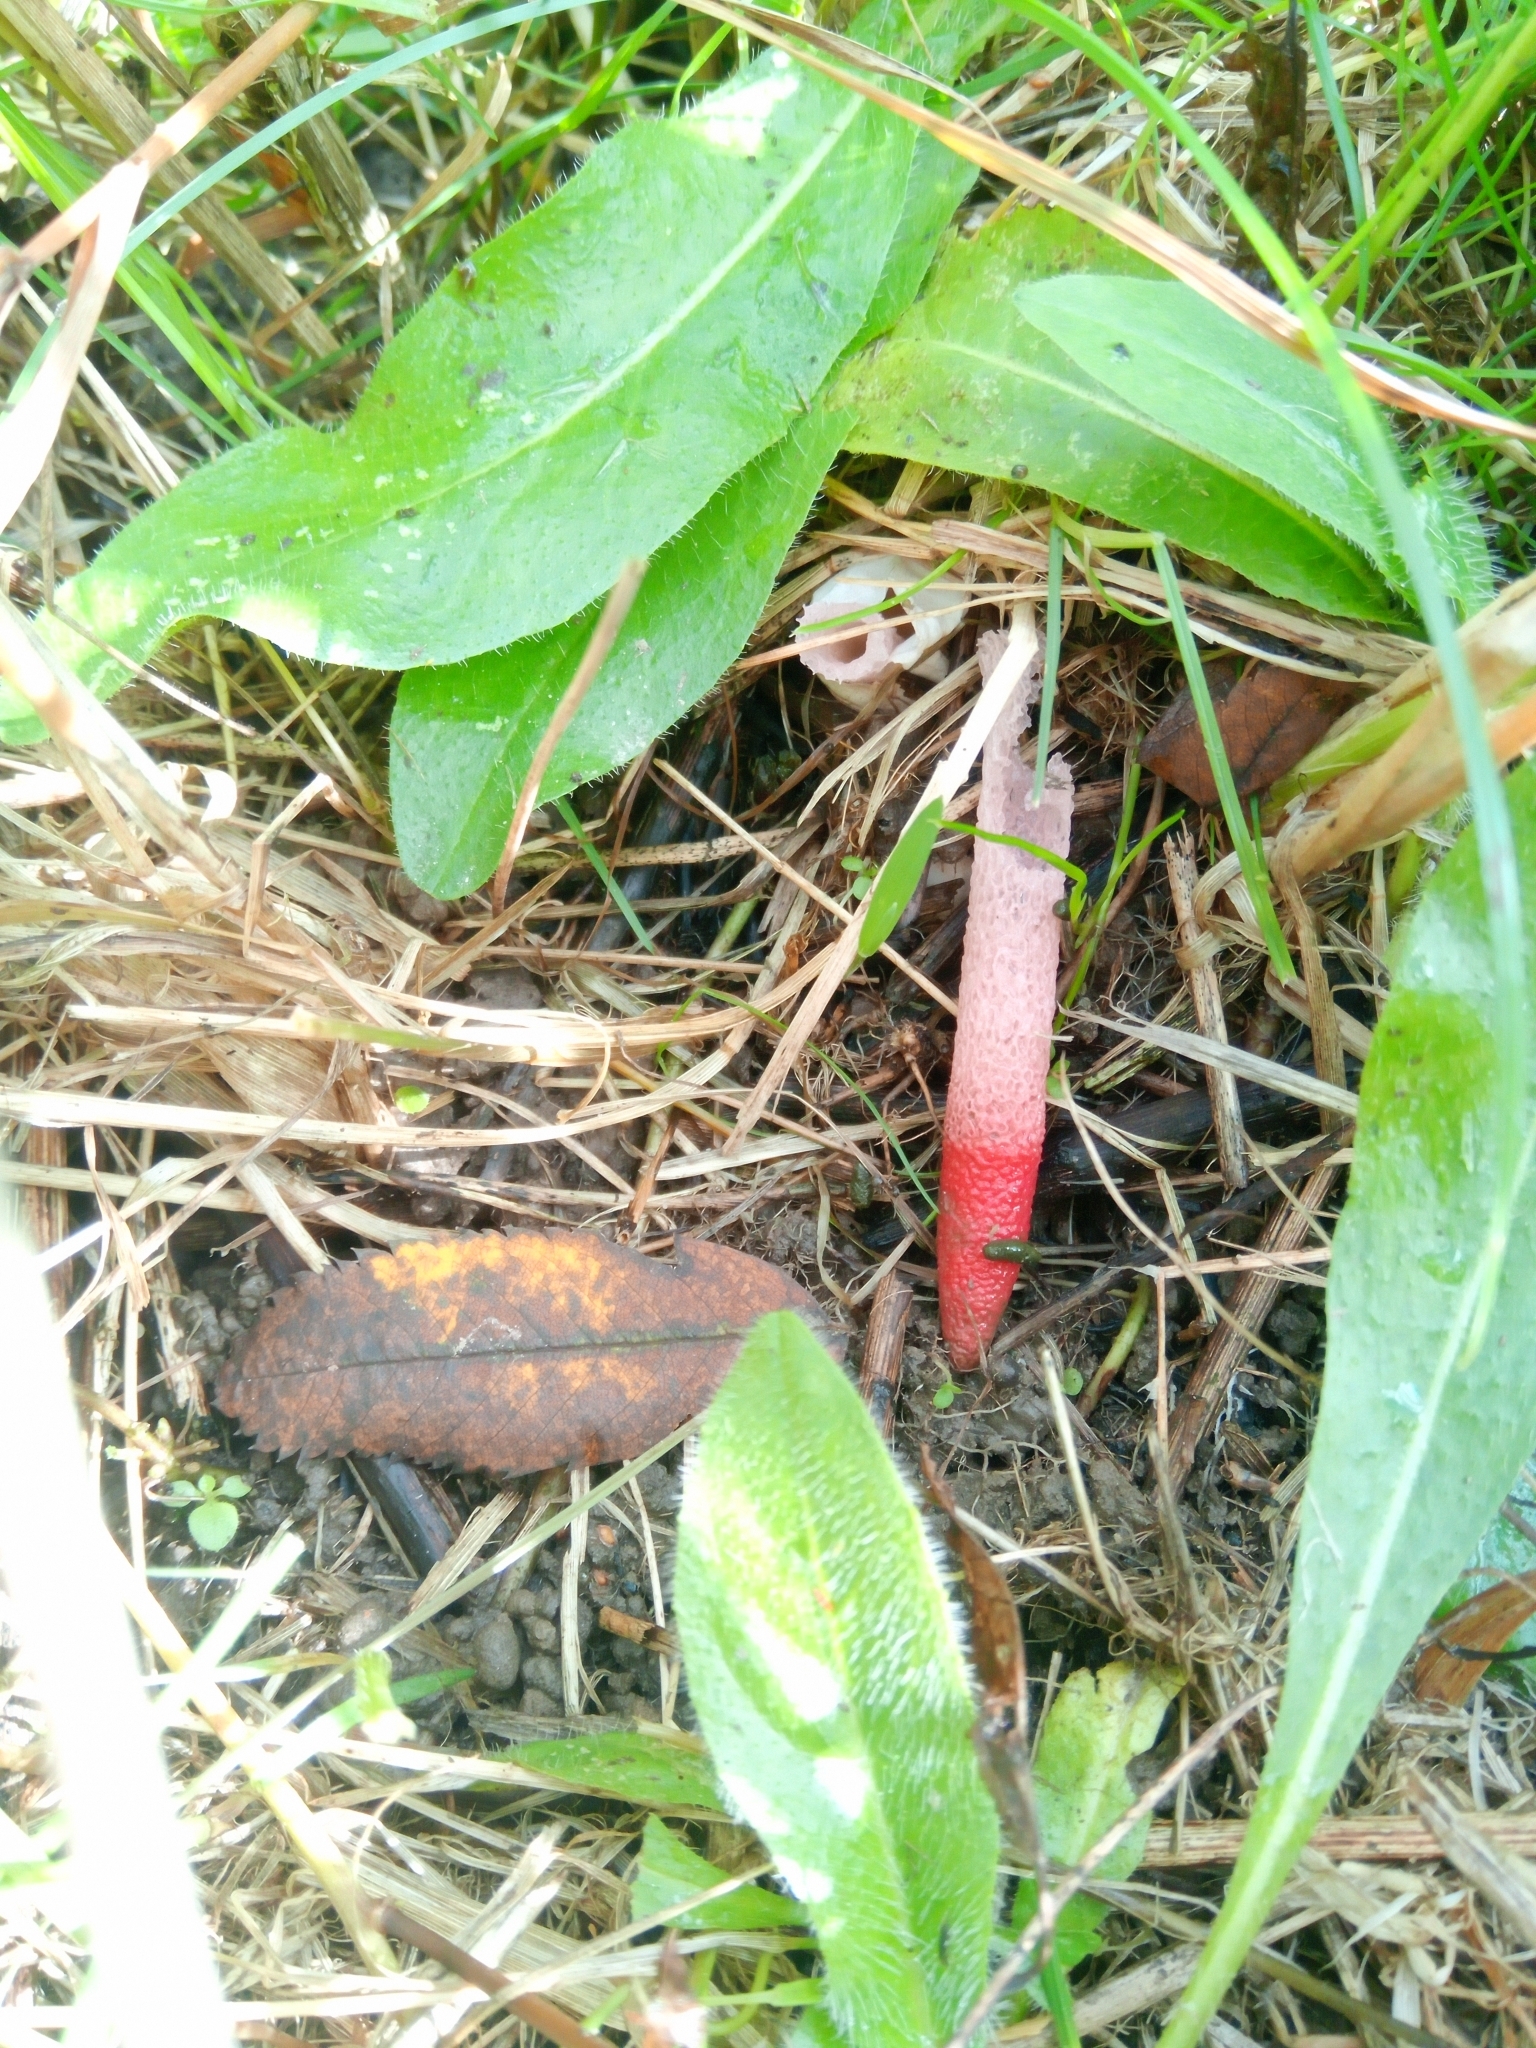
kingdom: Fungi
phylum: Basidiomycota
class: Agaricomycetes
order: Phallales
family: Phallaceae
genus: Mutinus
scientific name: Mutinus ravenelii
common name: Red stinkhorn
